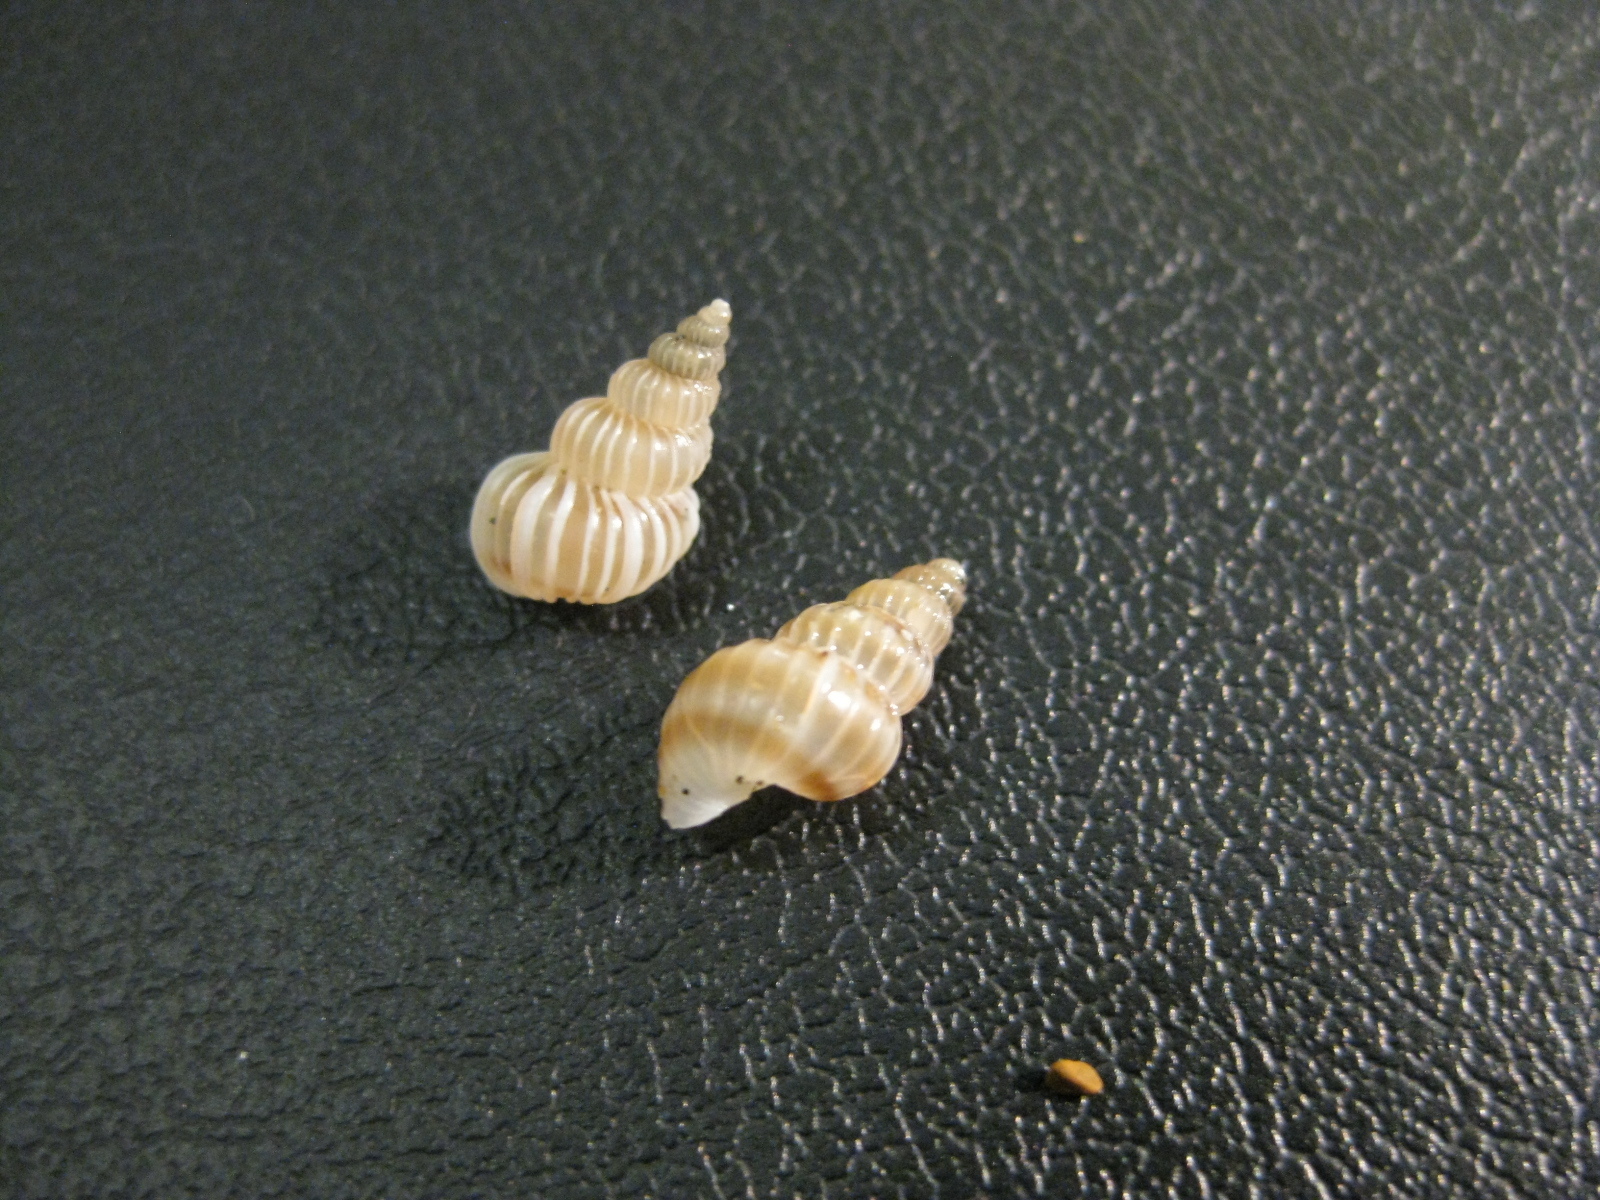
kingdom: Animalia
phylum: Mollusca
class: Gastropoda
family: Epitoniidae
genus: Epitonium
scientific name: Epitonium tenellum
